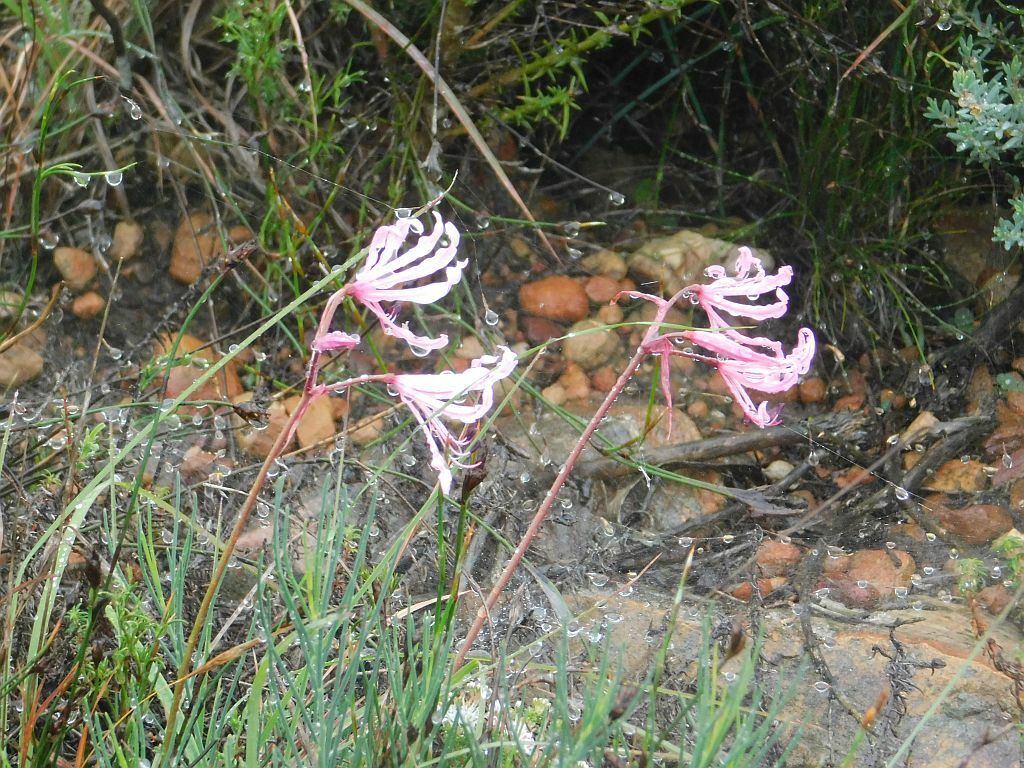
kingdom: Plantae
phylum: Tracheophyta
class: Liliopsida
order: Asparagales
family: Amaryllidaceae
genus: Nerine
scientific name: Nerine humilis
